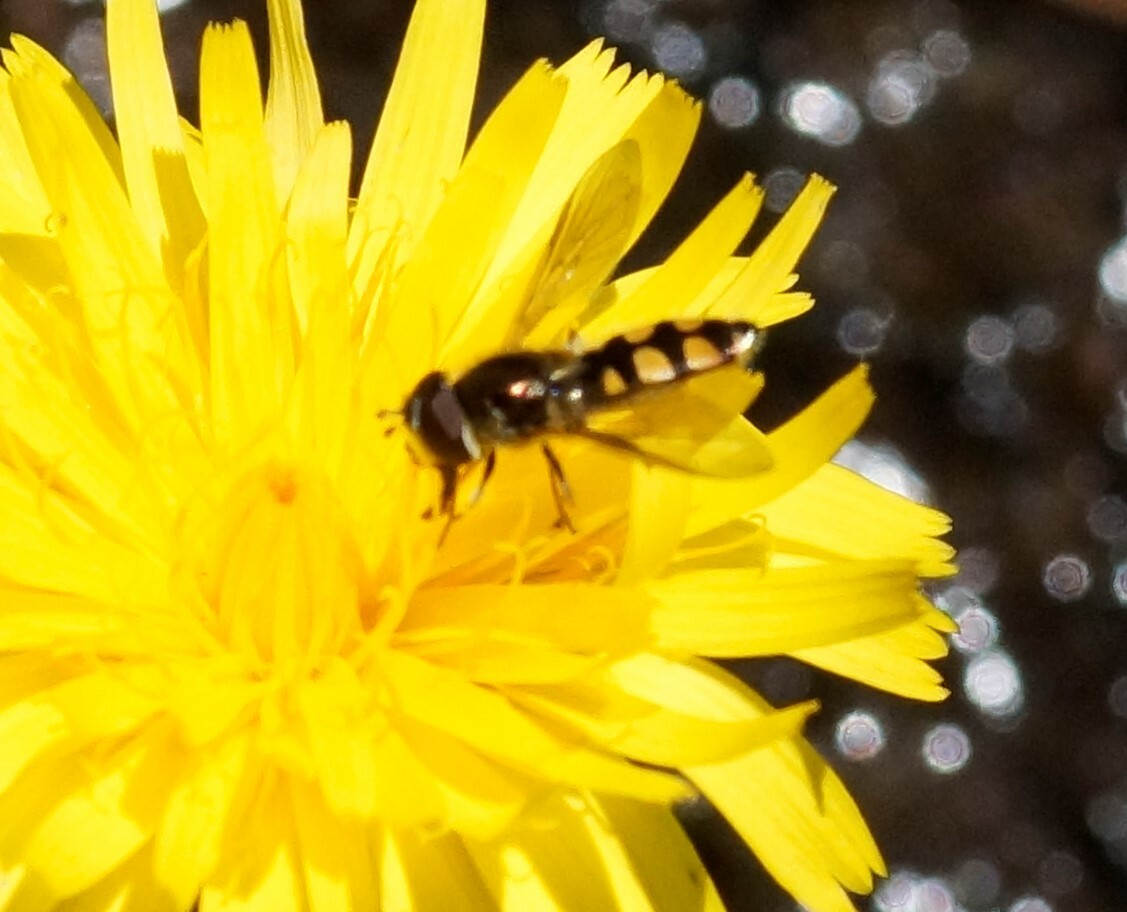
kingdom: Animalia
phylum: Arthropoda
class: Insecta
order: Diptera
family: Syrphidae
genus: Melangyna
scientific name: Melangyna viridiceps
